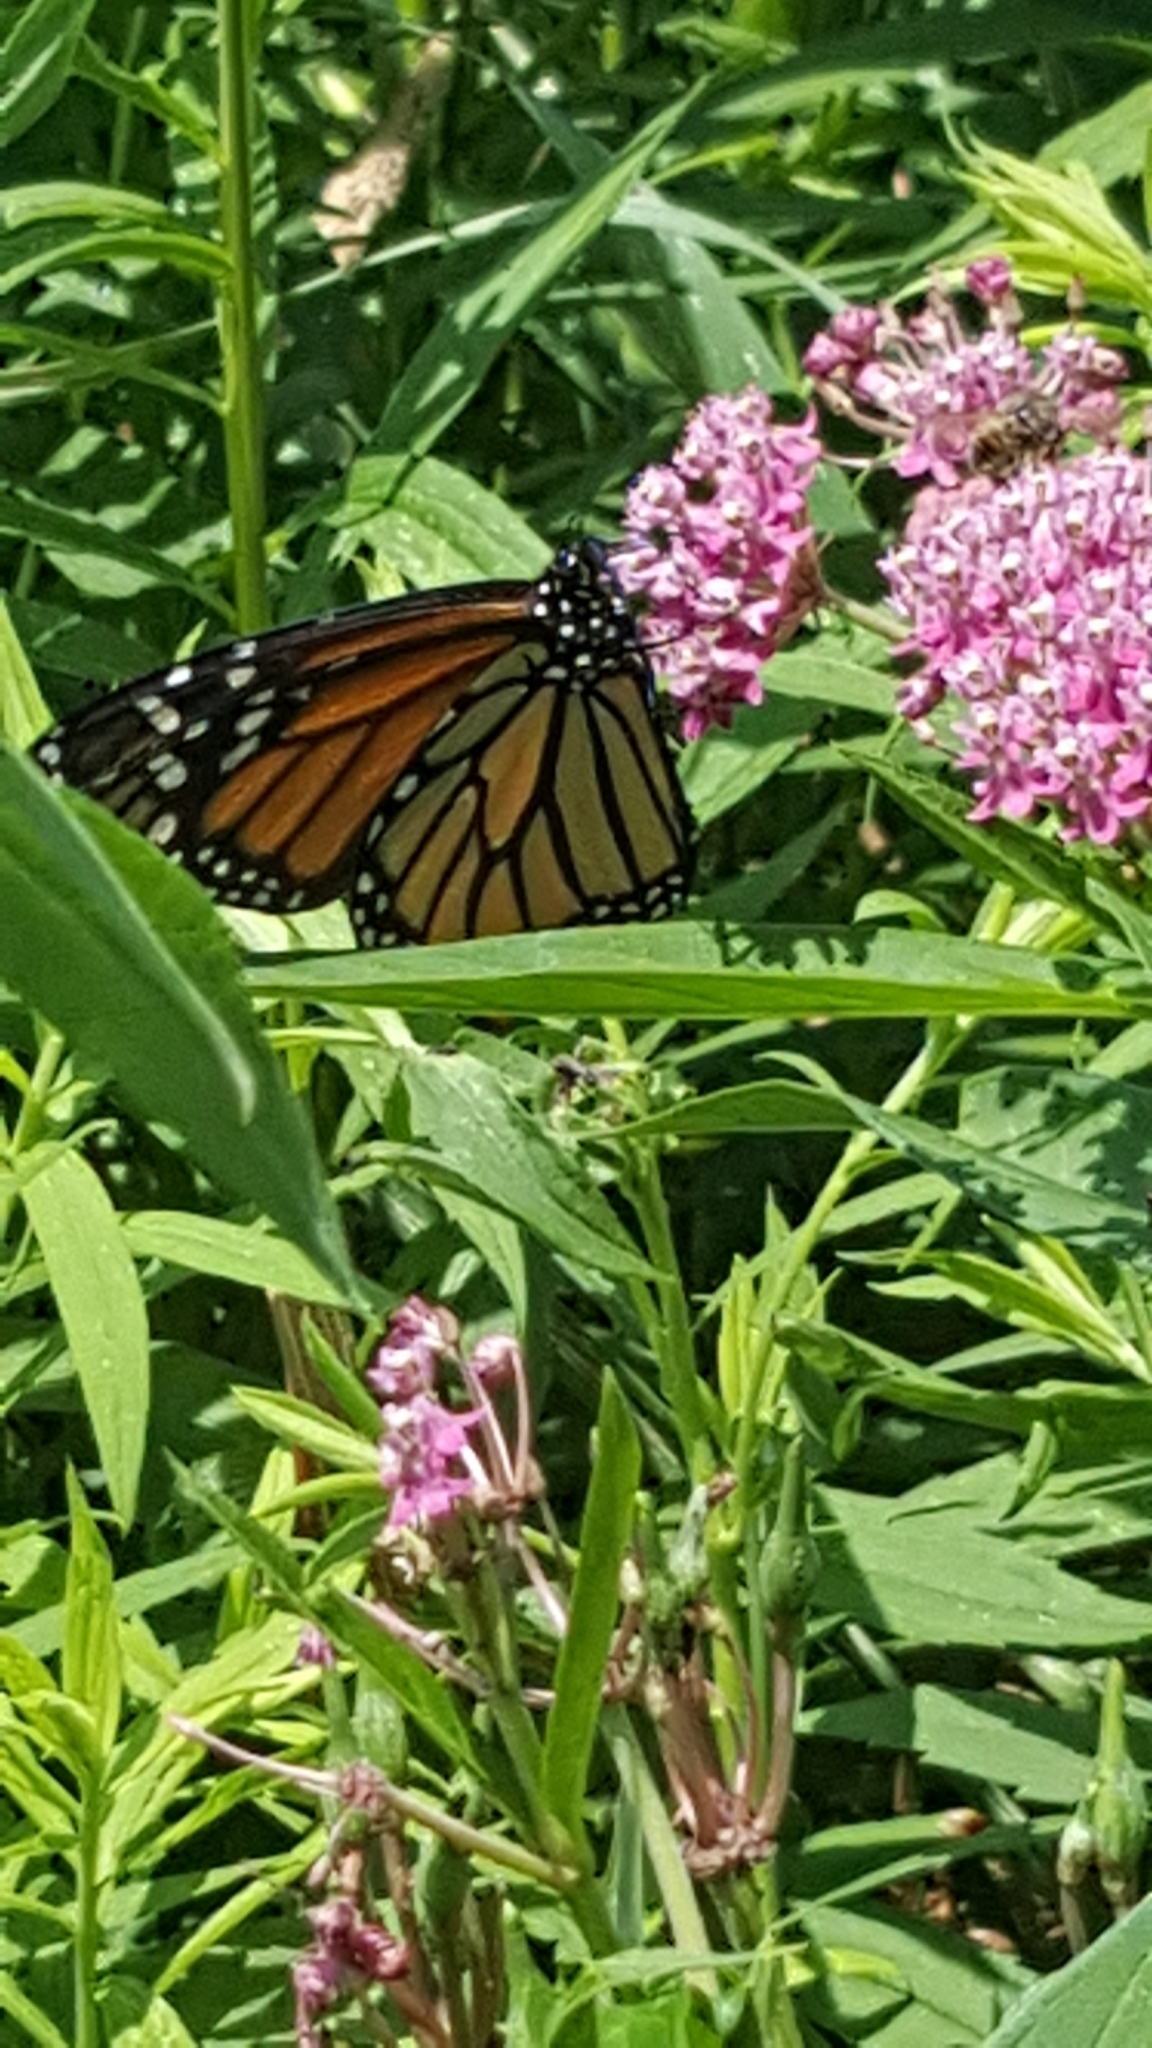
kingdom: Animalia
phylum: Arthropoda
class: Insecta
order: Lepidoptera
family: Nymphalidae
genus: Danaus
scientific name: Danaus plexippus
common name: Monarch
